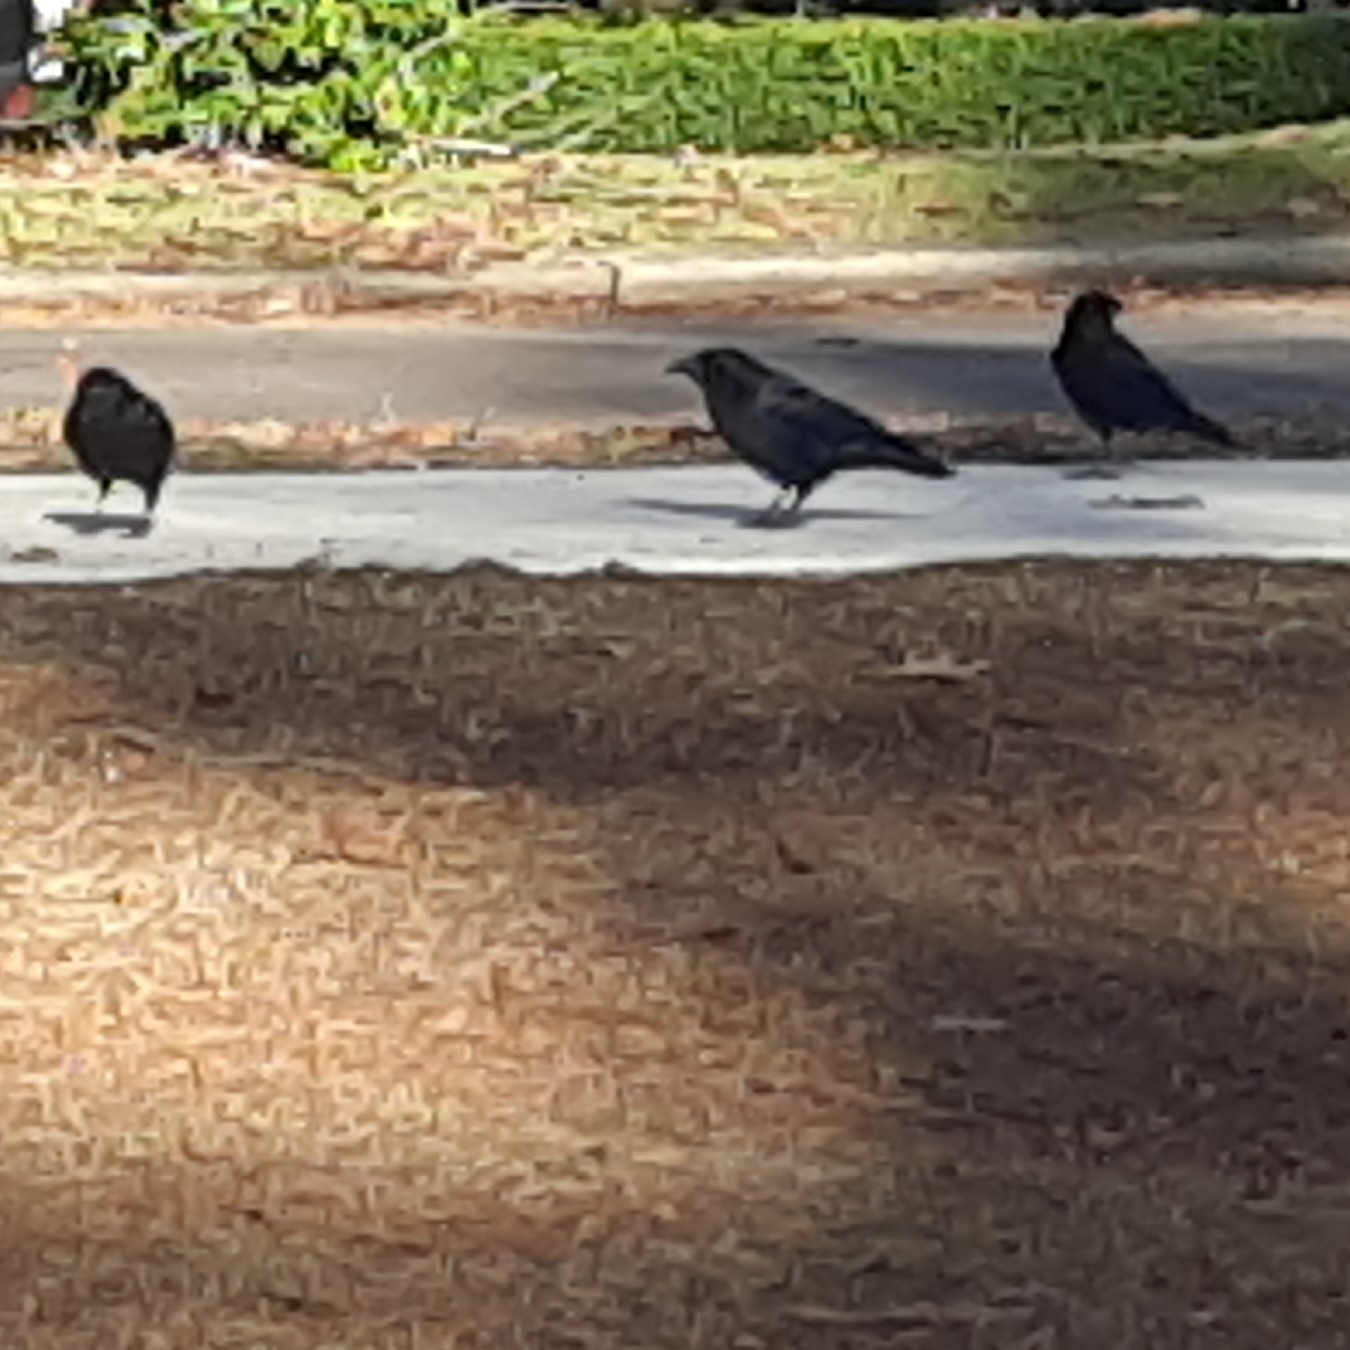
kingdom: Animalia
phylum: Chordata
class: Aves
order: Passeriformes
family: Corvidae
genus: Corvus
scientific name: Corvus brachyrhynchos
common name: American crow
